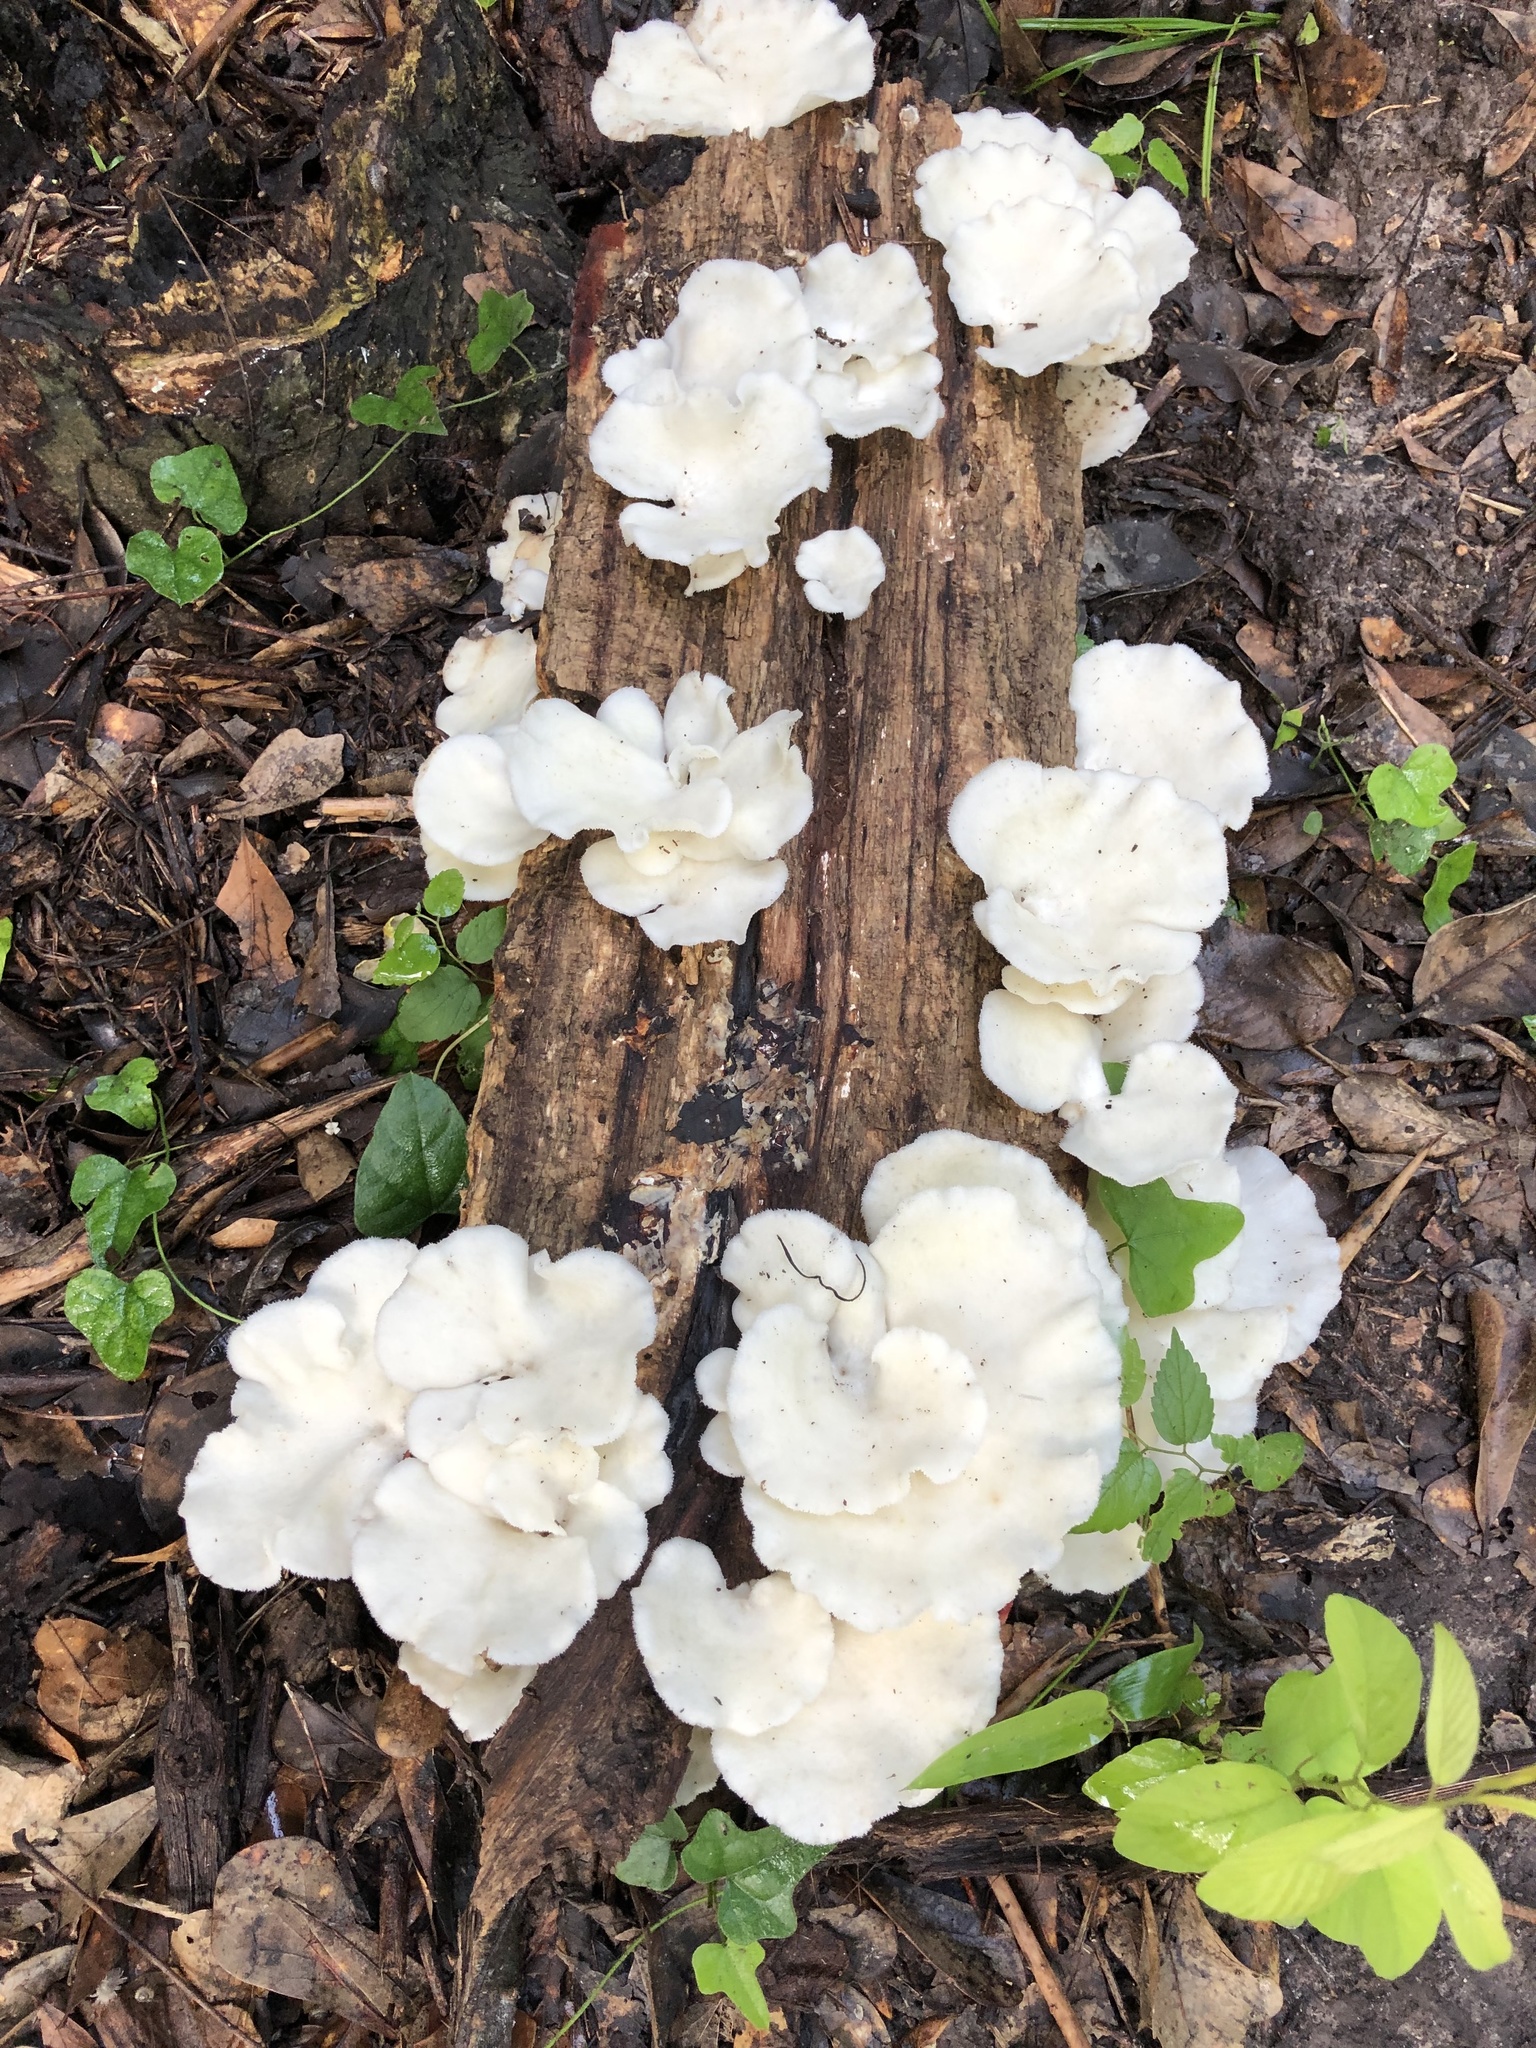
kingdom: Fungi
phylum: Basidiomycota
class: Agaricomycetes
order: Polyporales
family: Polyporaceae
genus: Favolus
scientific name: Favolus tenuiculus
